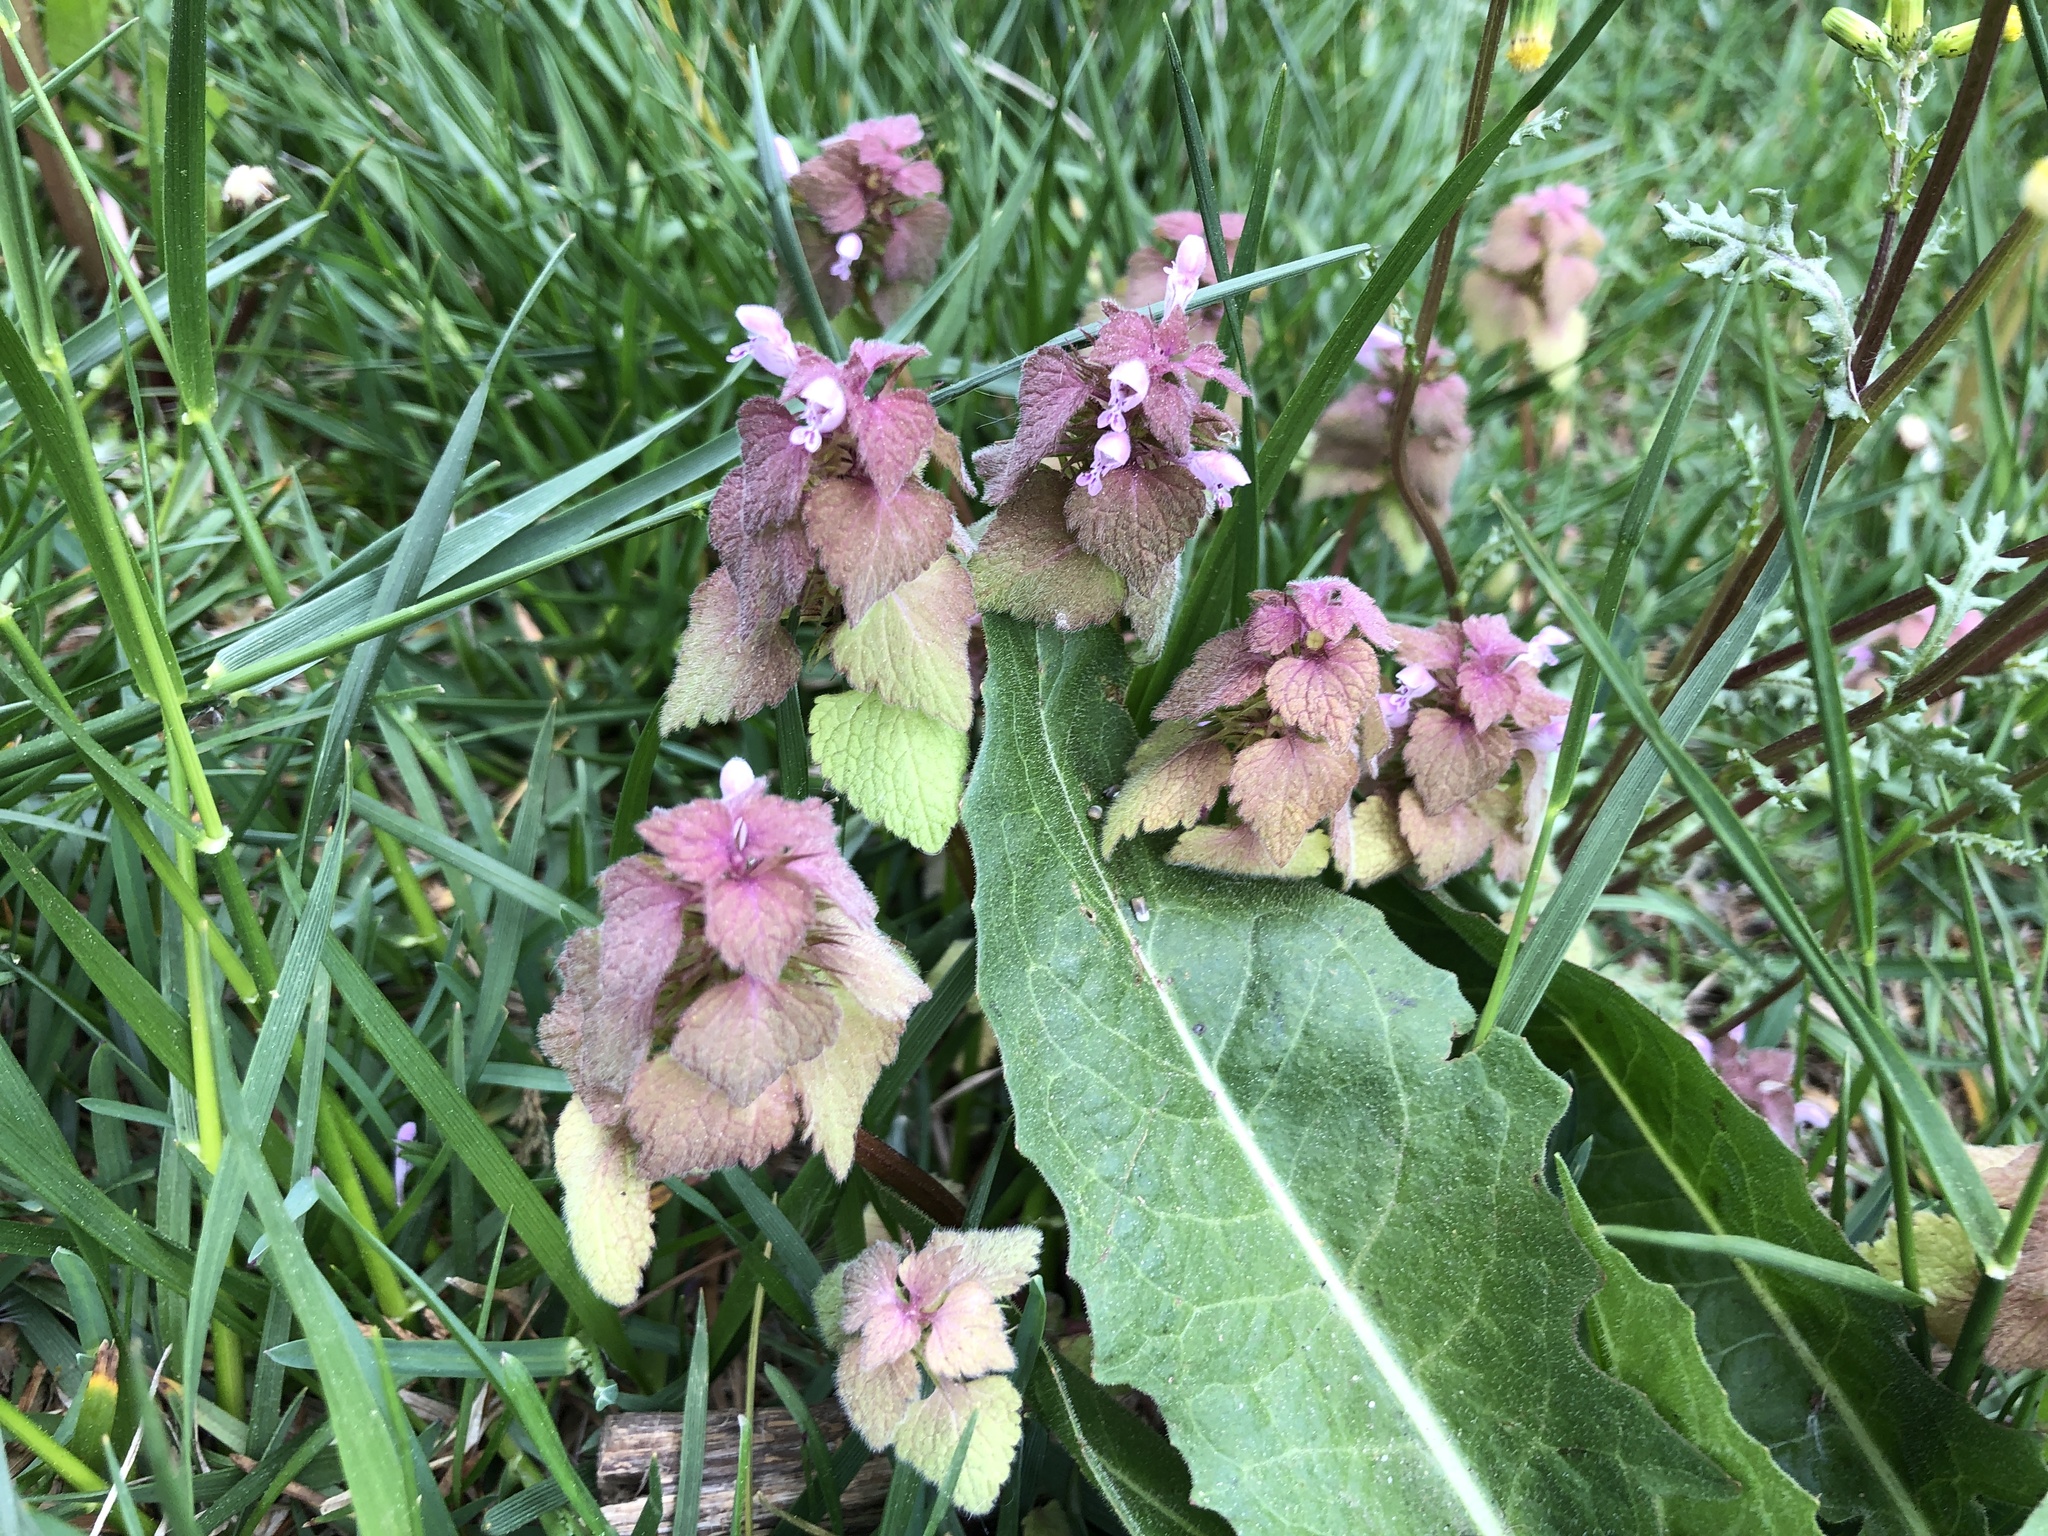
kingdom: Plantae
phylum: Tracheophyta
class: Magnoliopsida
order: Lamiales
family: Lamiaceae
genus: Lamium
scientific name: Lamium purpureum
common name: Red dead-nettle
